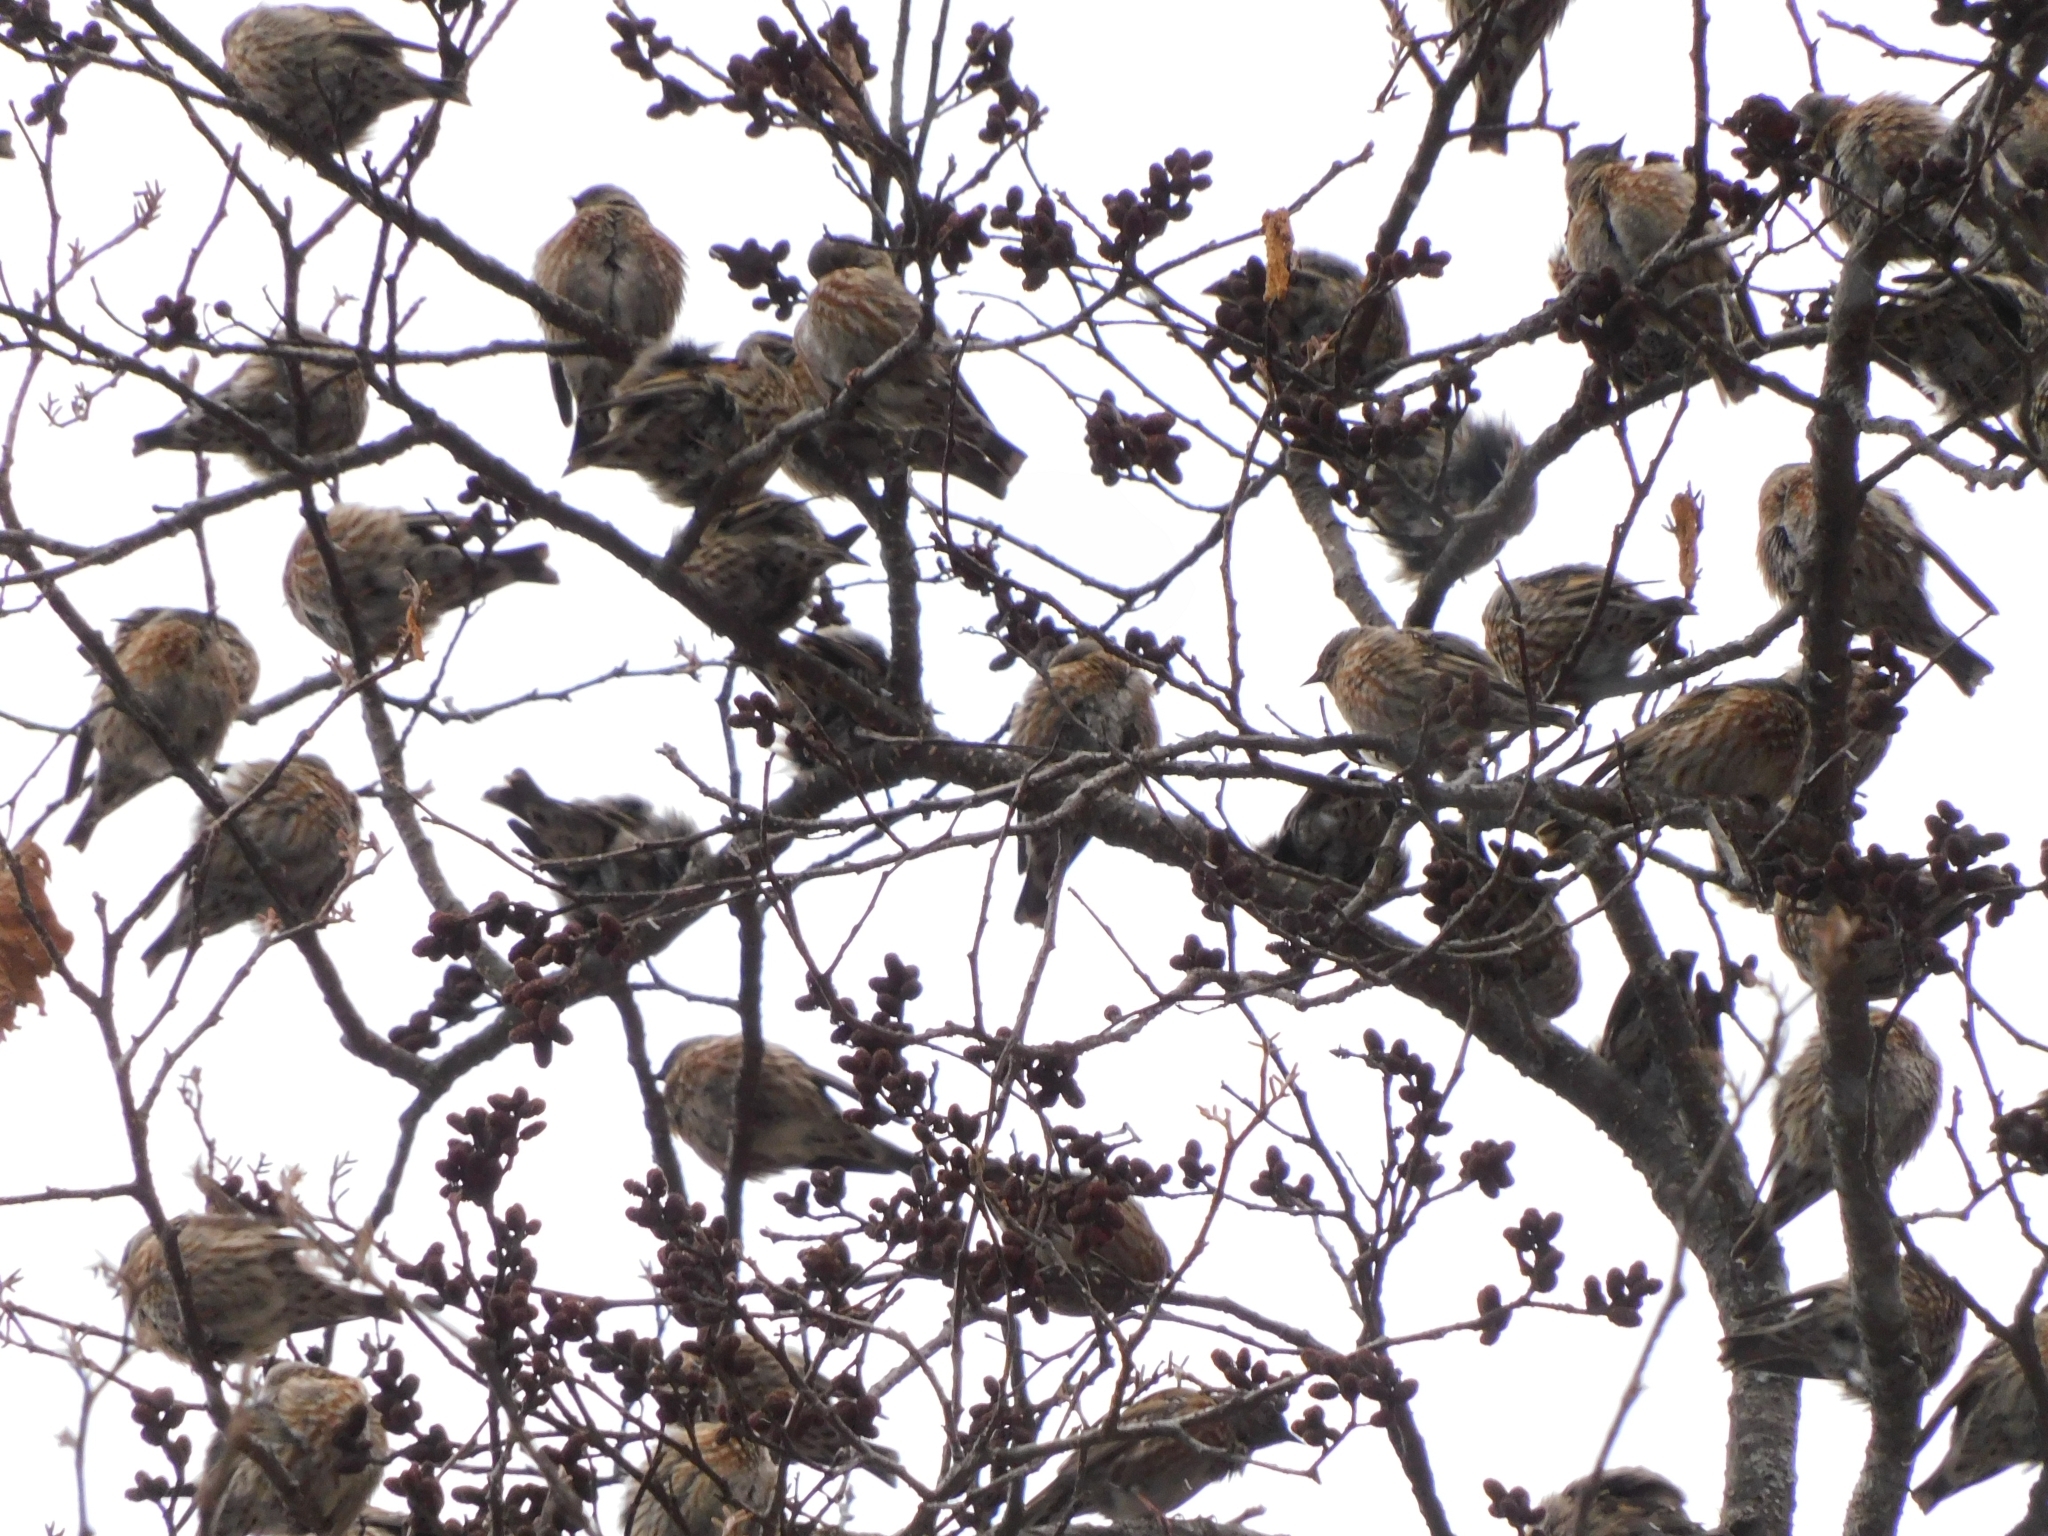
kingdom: Animalia
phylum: Chordata
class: Aves
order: Passeriformes
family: Prunellidae
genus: Prunella
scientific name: Prunella collaris
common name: Alpine accentor
